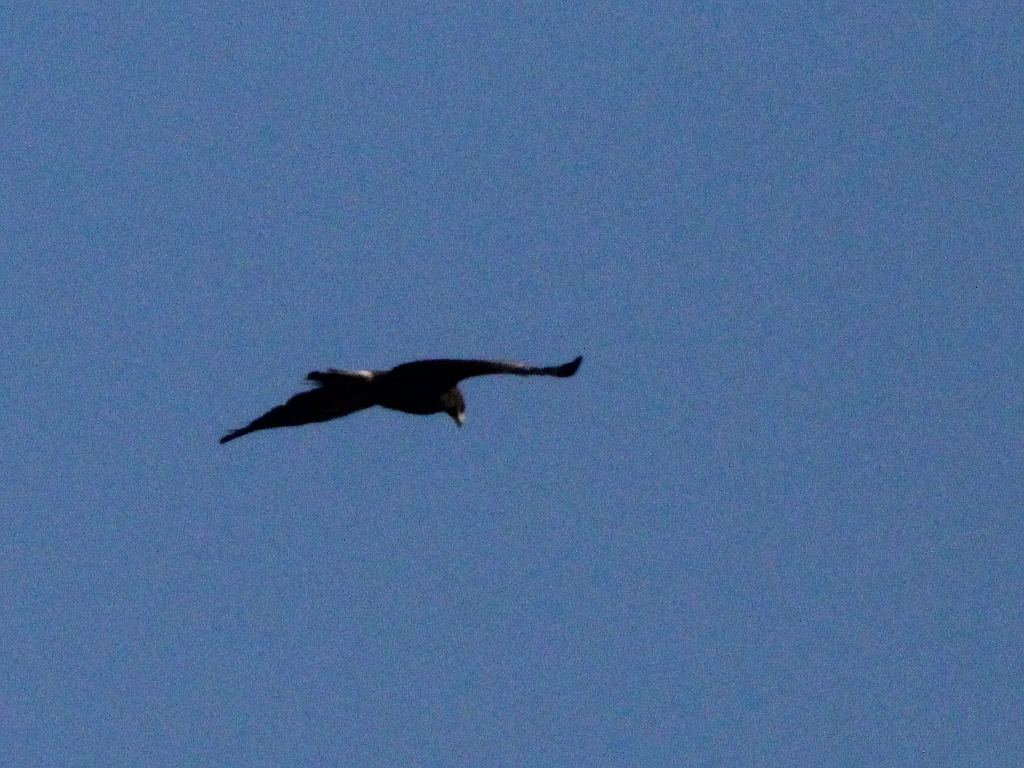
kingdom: Animalia
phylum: Chordata
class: Aves
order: Accipitriformes
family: Accipitridae
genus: Aquila
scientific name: Aquila pomarina
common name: Lesser spotted eagle
